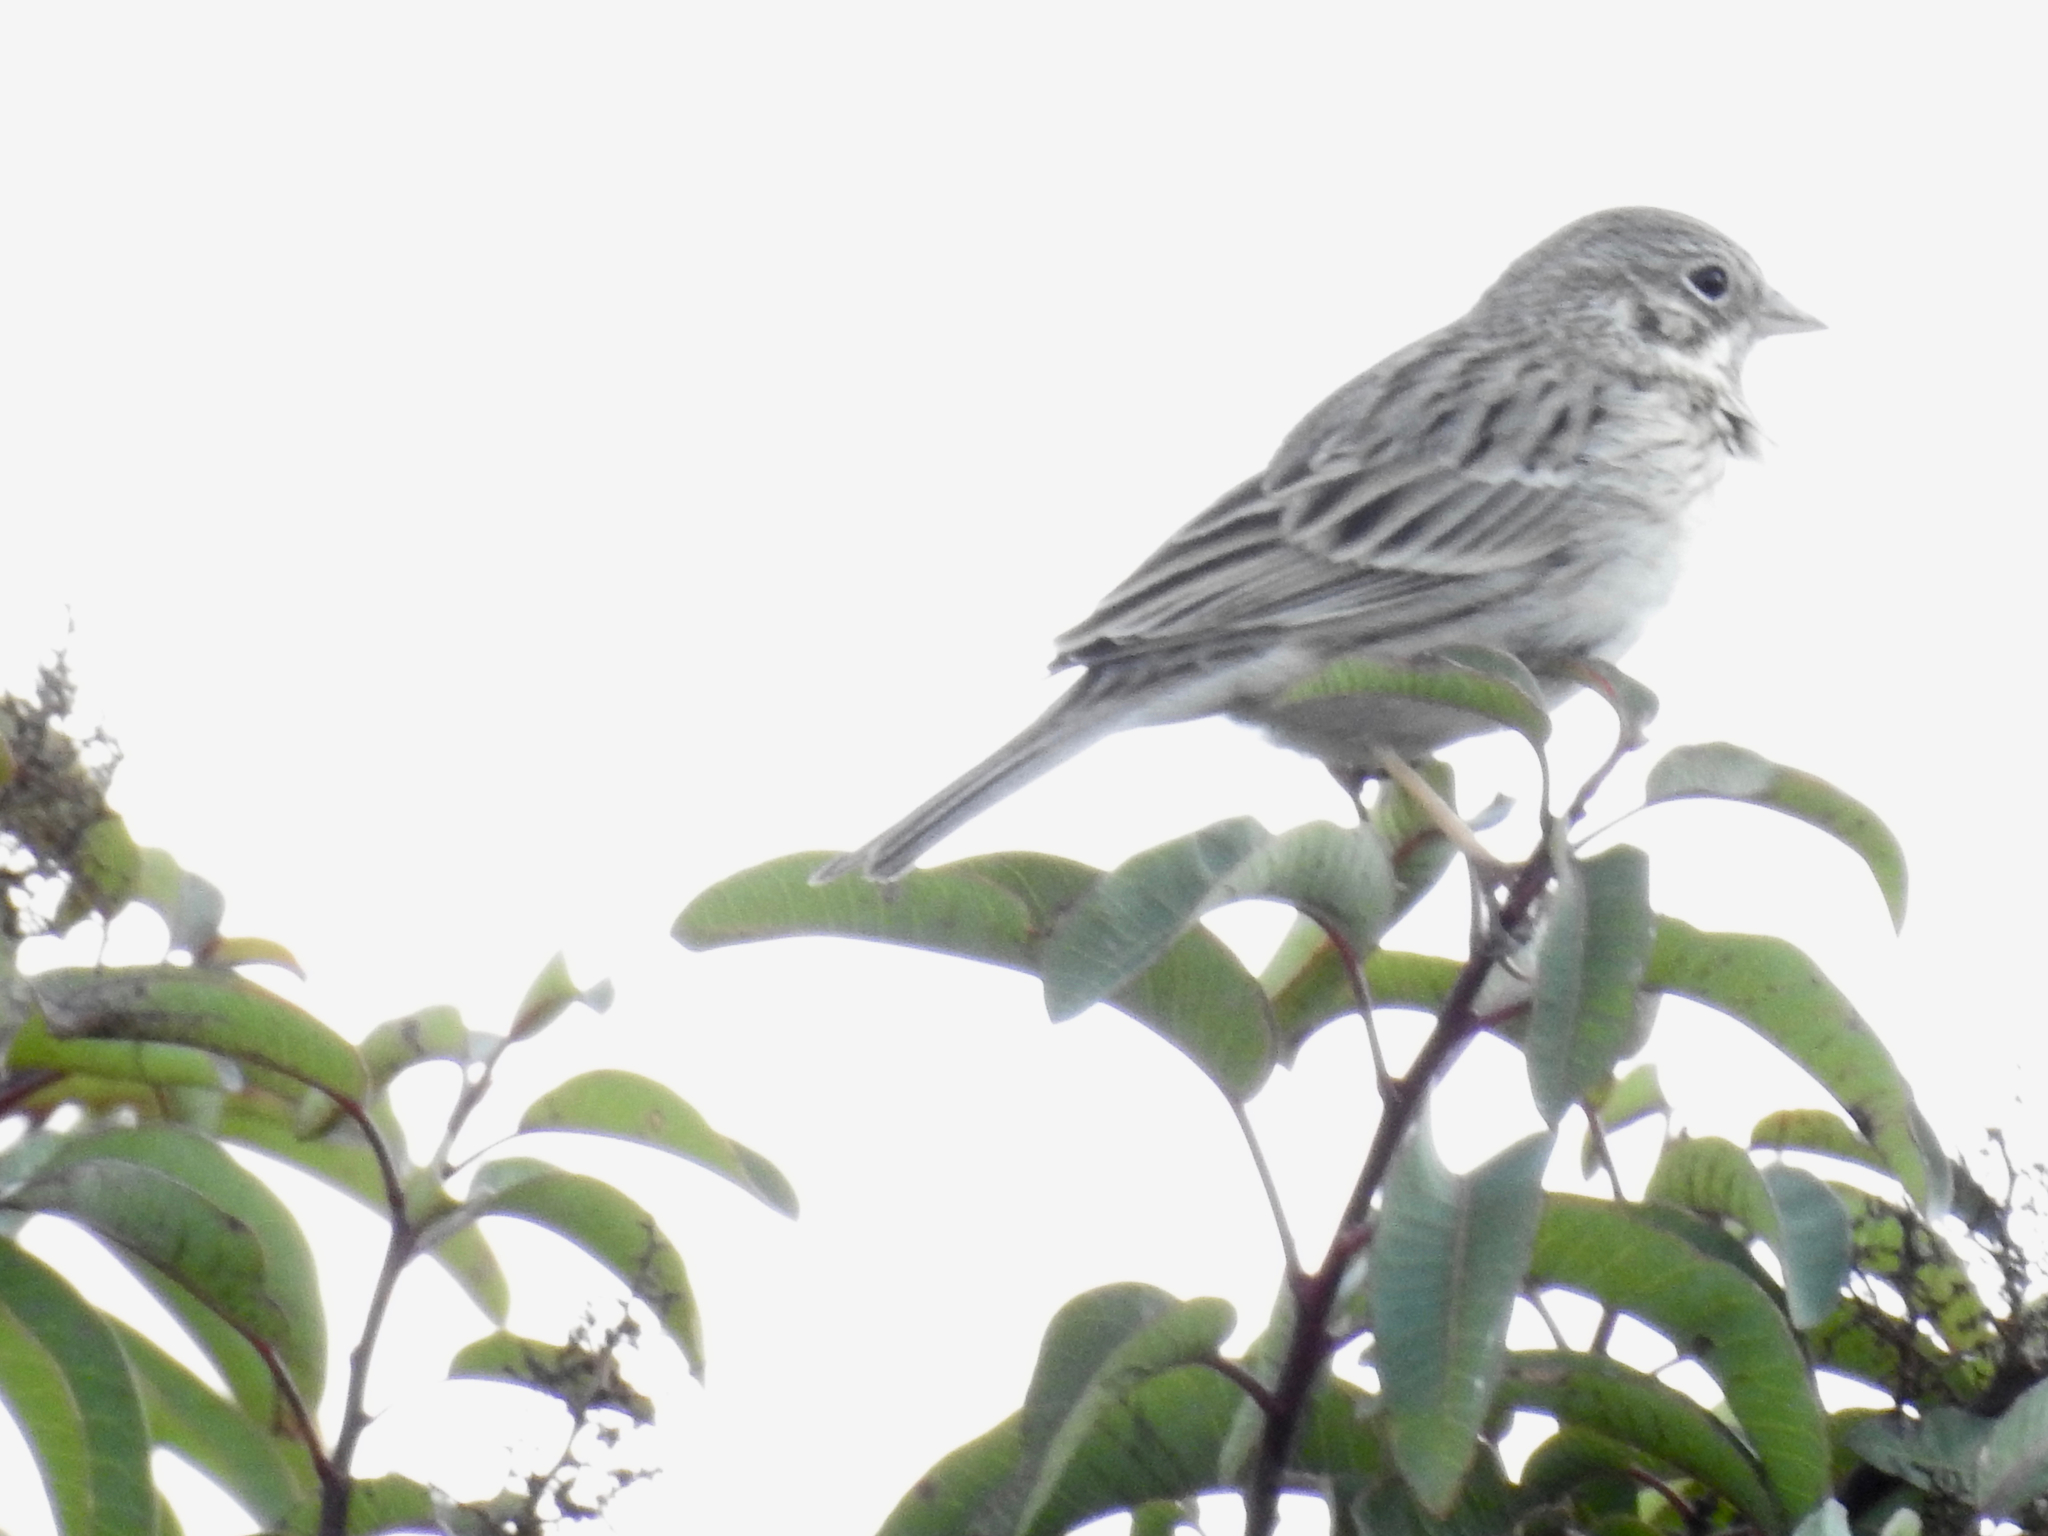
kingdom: Animalia
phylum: Chordata
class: Aves
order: Passeriformes
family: Passerellidae
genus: Pooecetes
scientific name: Pooecetes gramineus
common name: Vesper sparrow
